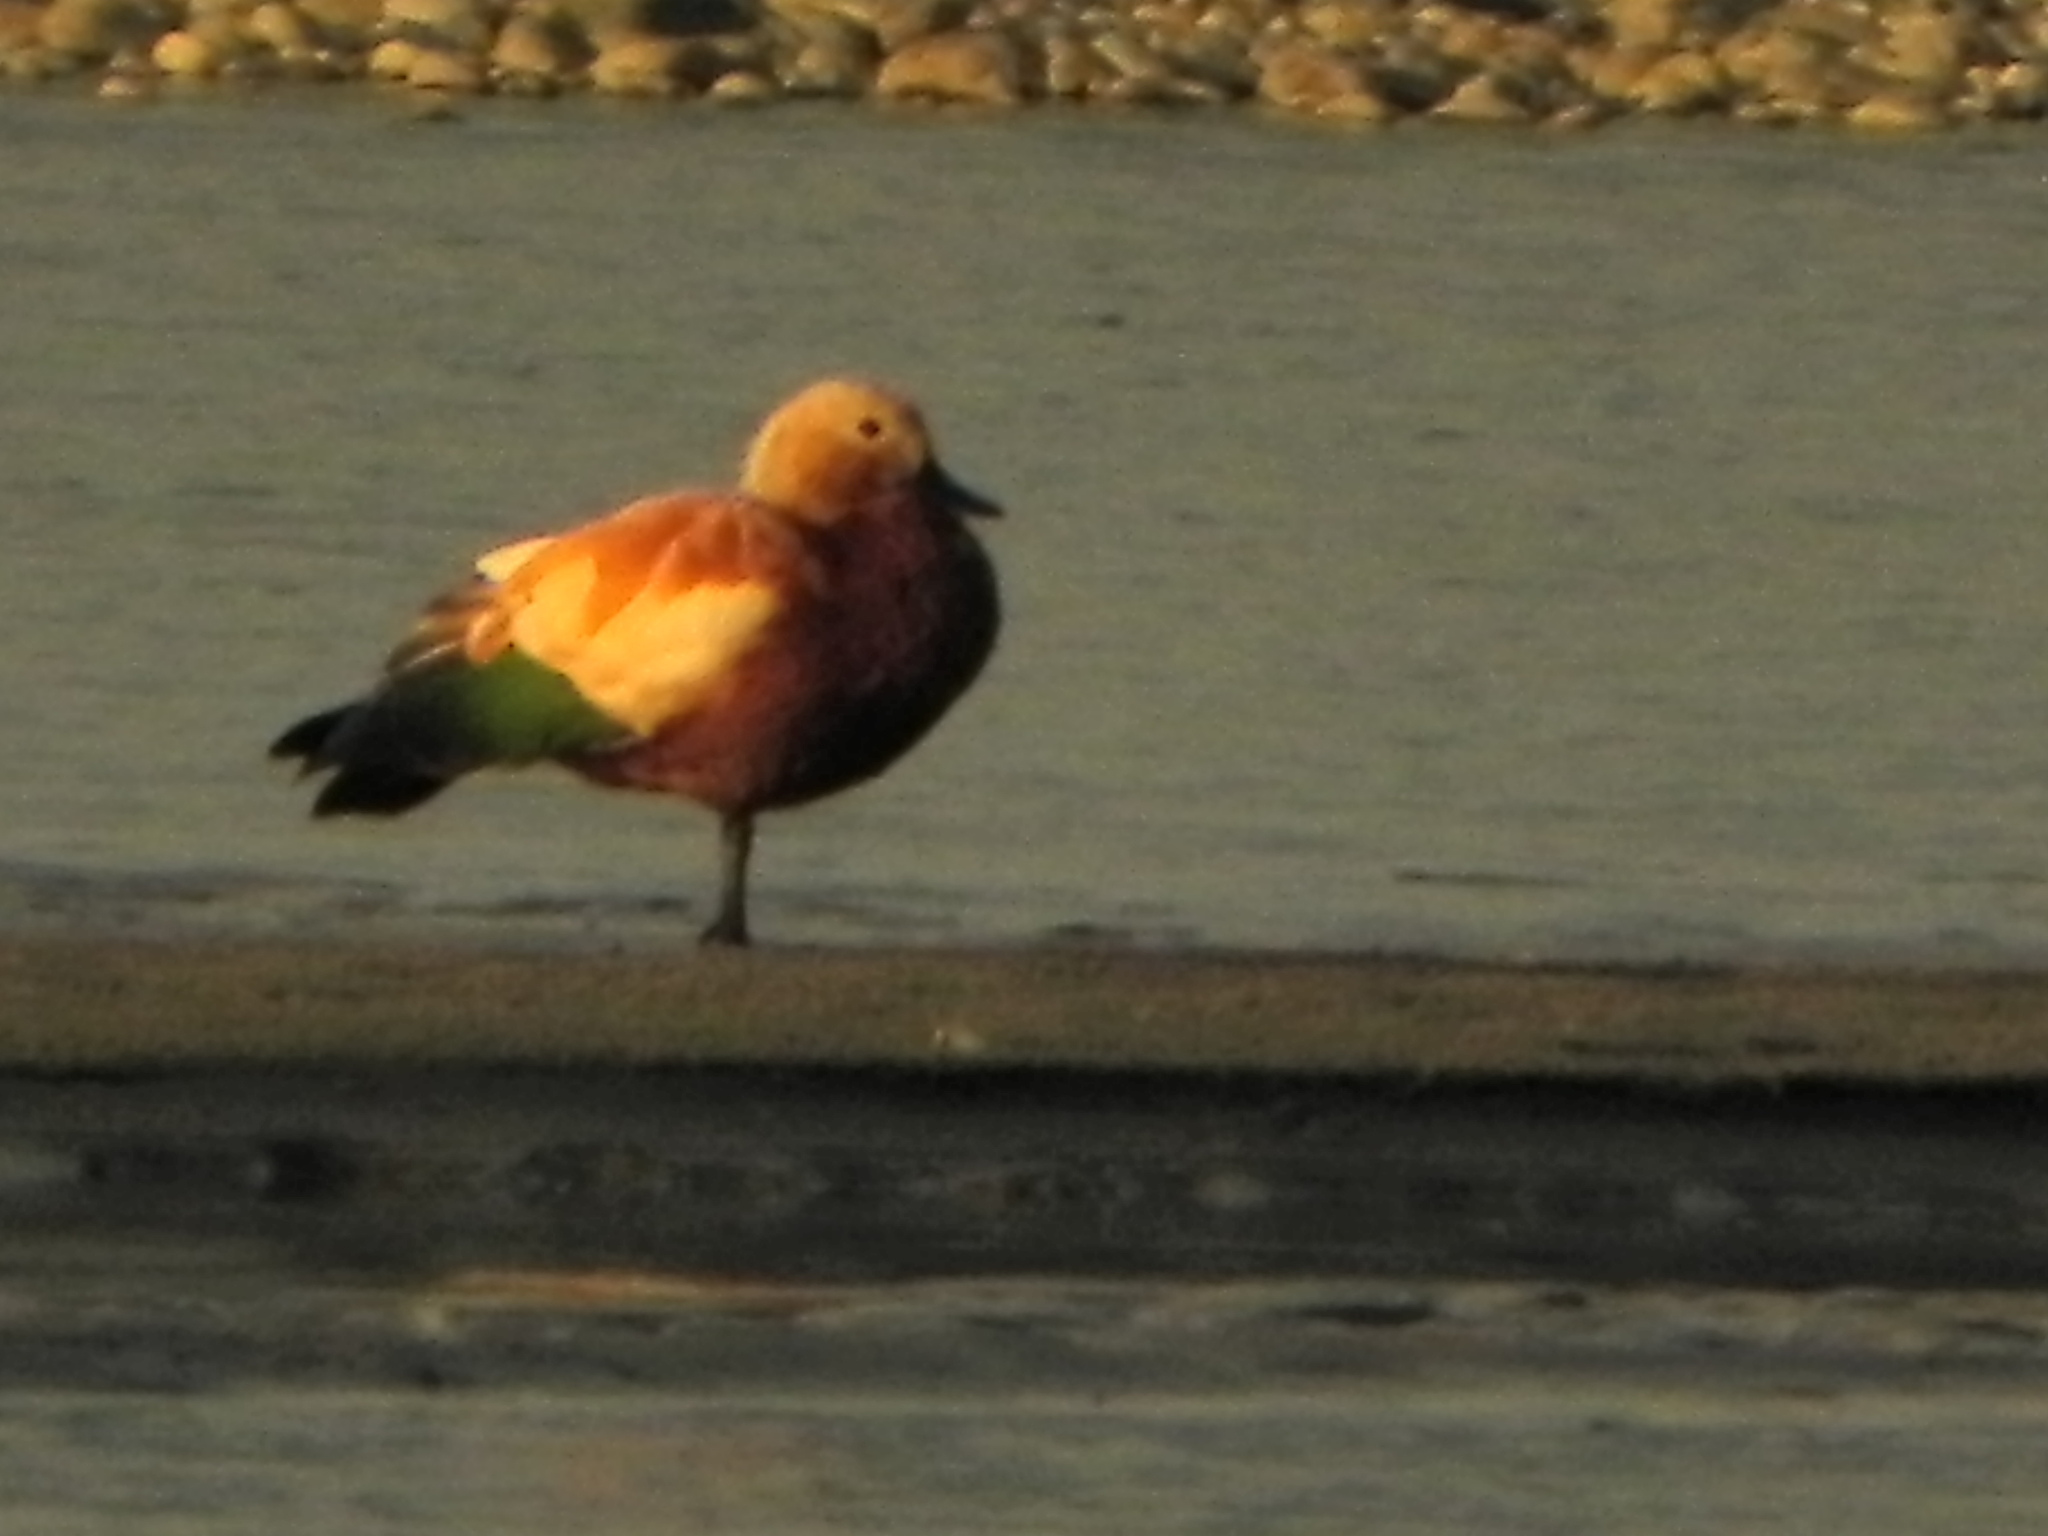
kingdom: Animalia
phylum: Chordata
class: Aves
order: Anseriformes
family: Anatidae
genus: Tadorna
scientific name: Tadorna ferruginea
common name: Ruddy shelduck
